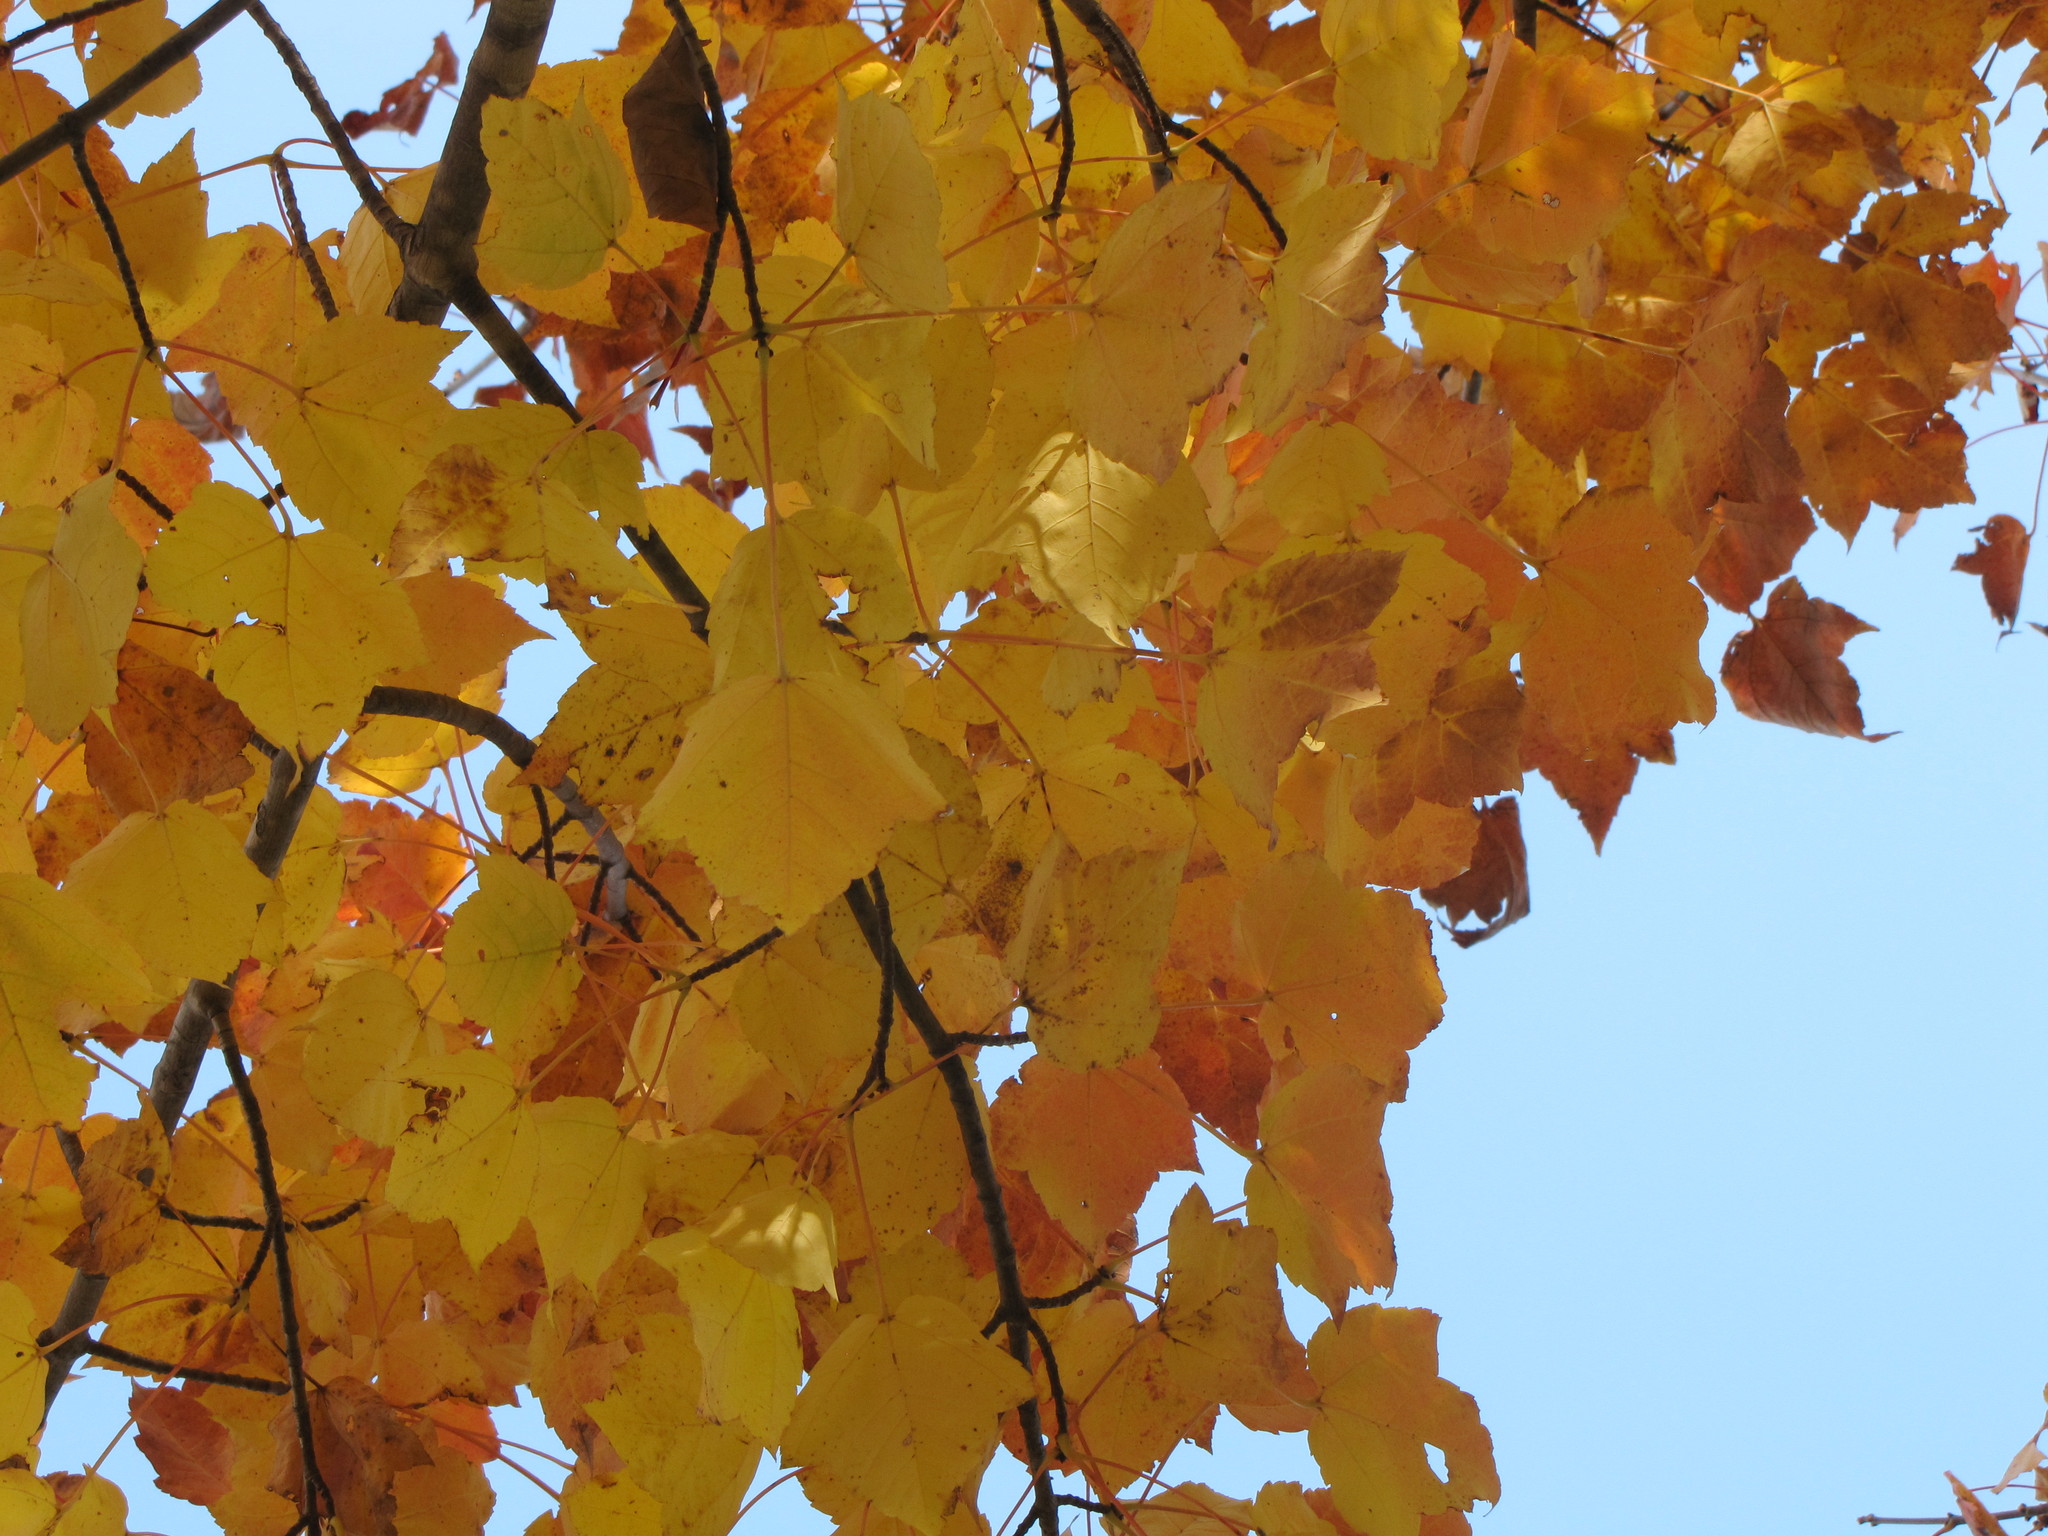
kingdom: Plantae
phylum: Tracheophyta
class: Magnoliopsida
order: Sapindales
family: Sapindaceae
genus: Acer
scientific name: Acer rubrum
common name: Red maple
